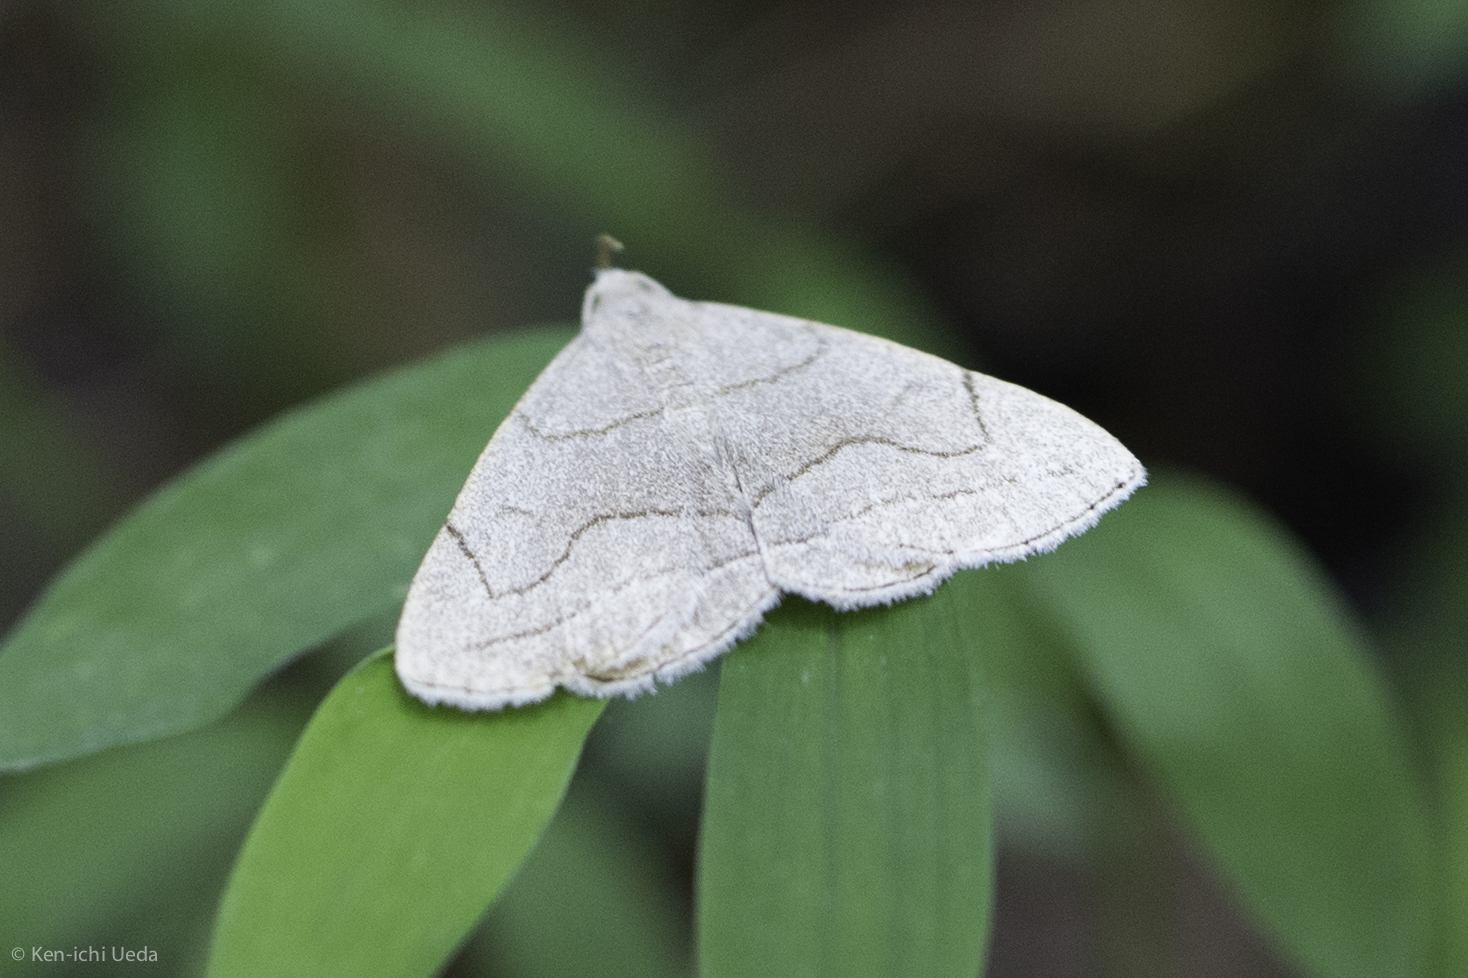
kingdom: Animalia
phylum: Arthropoda
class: Insecta
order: Lepidoptera
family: Erebidae
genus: Zanclognatha
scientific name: Zanclognatha pedipilalis
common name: Grayish fan-foot
